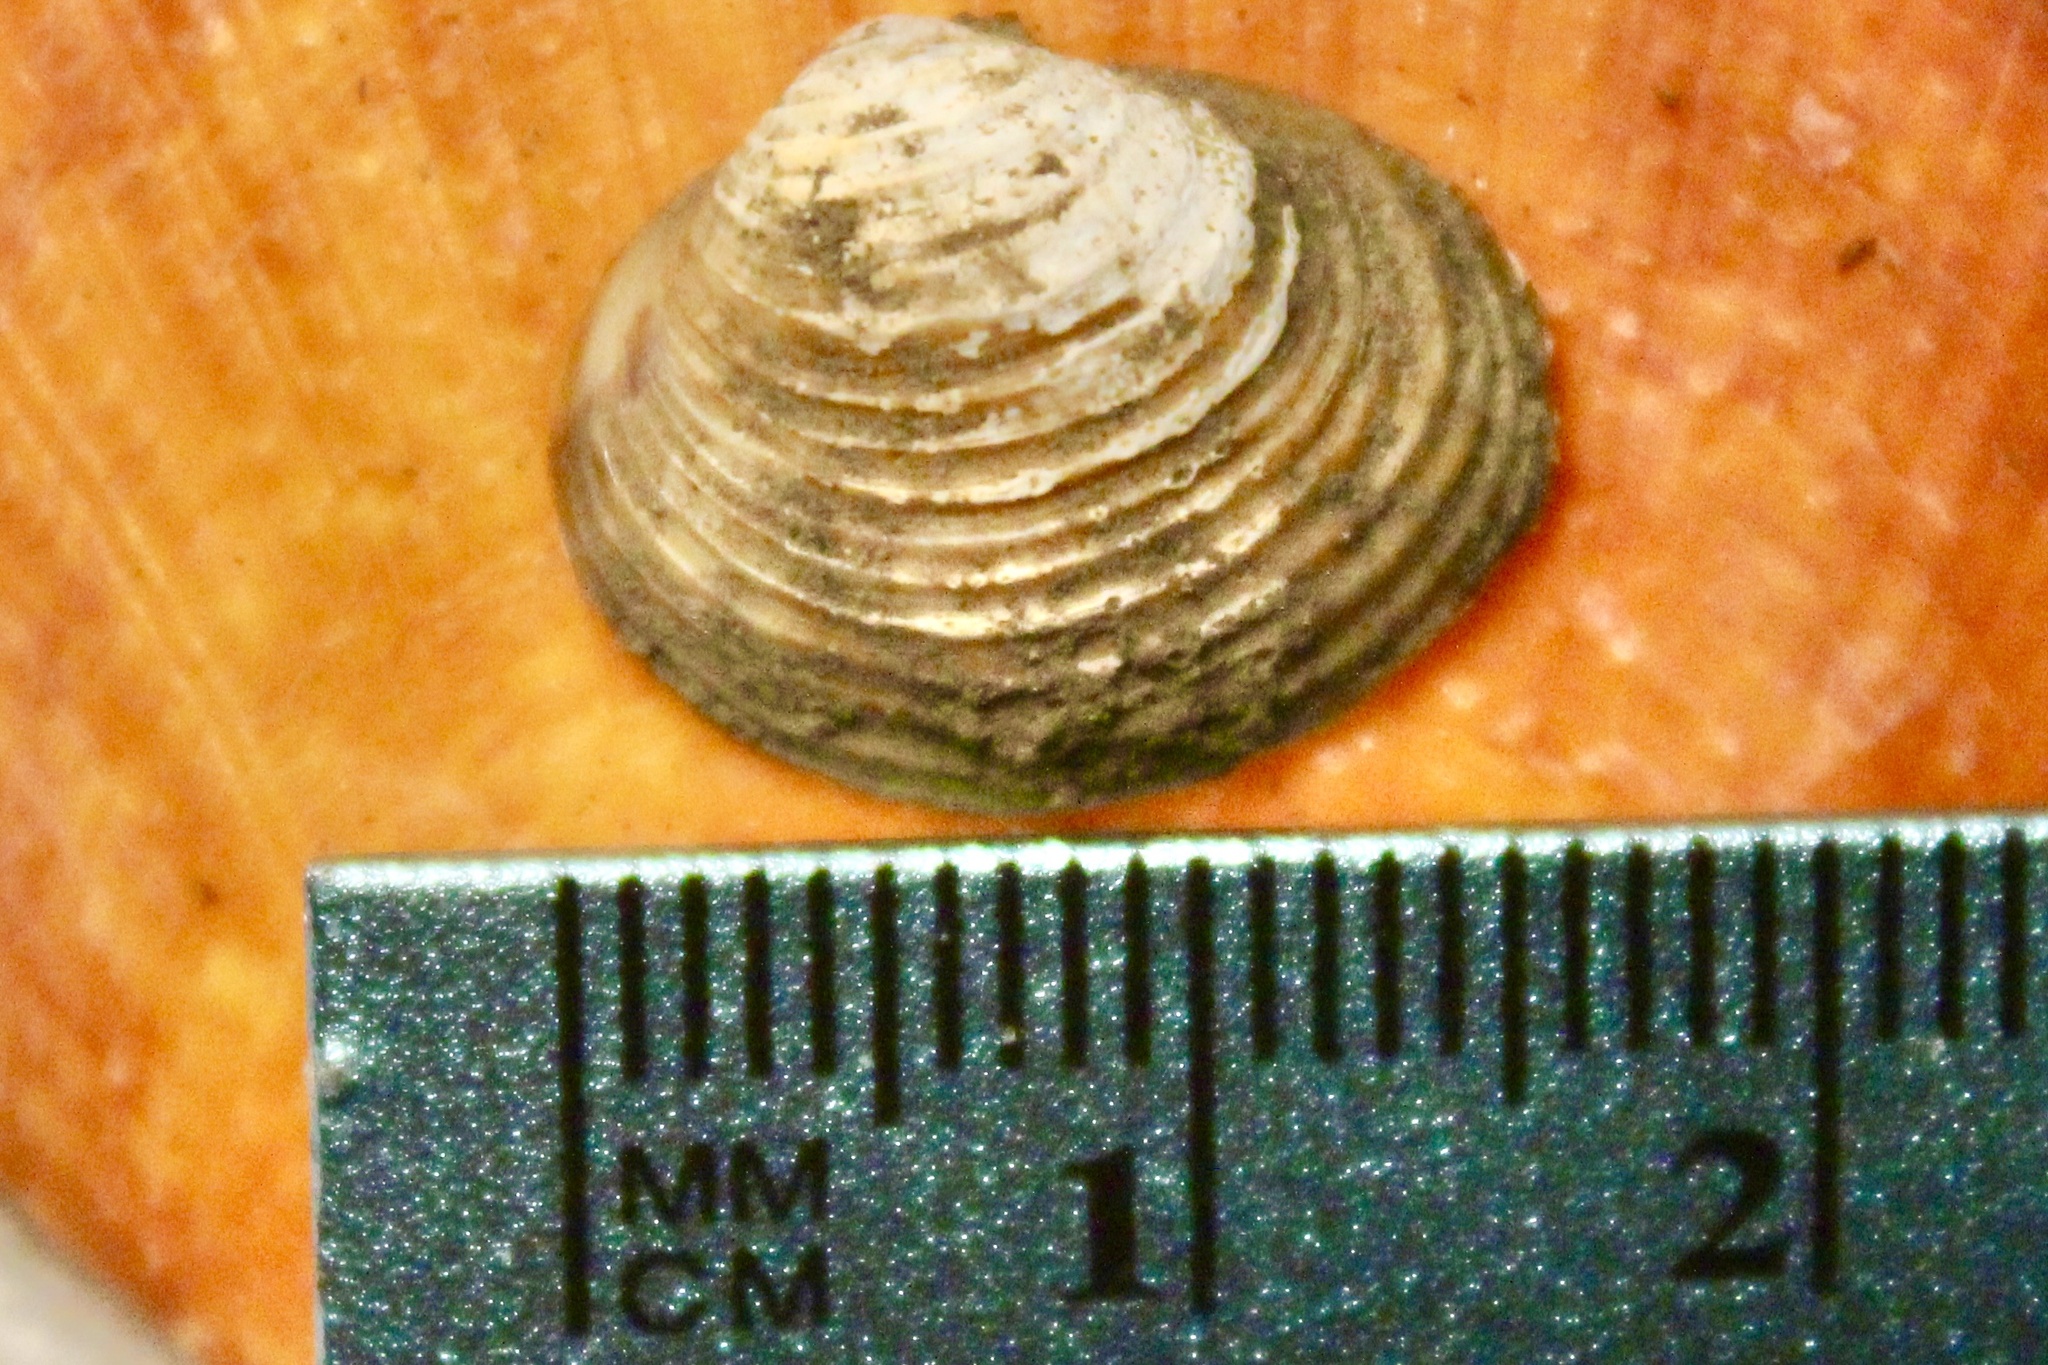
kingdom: Animalia
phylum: Mollusca
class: Bivalvia
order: Venerida
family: Cyrenidae
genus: Corbicula
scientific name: Corbicula fluminea
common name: Asian clam
